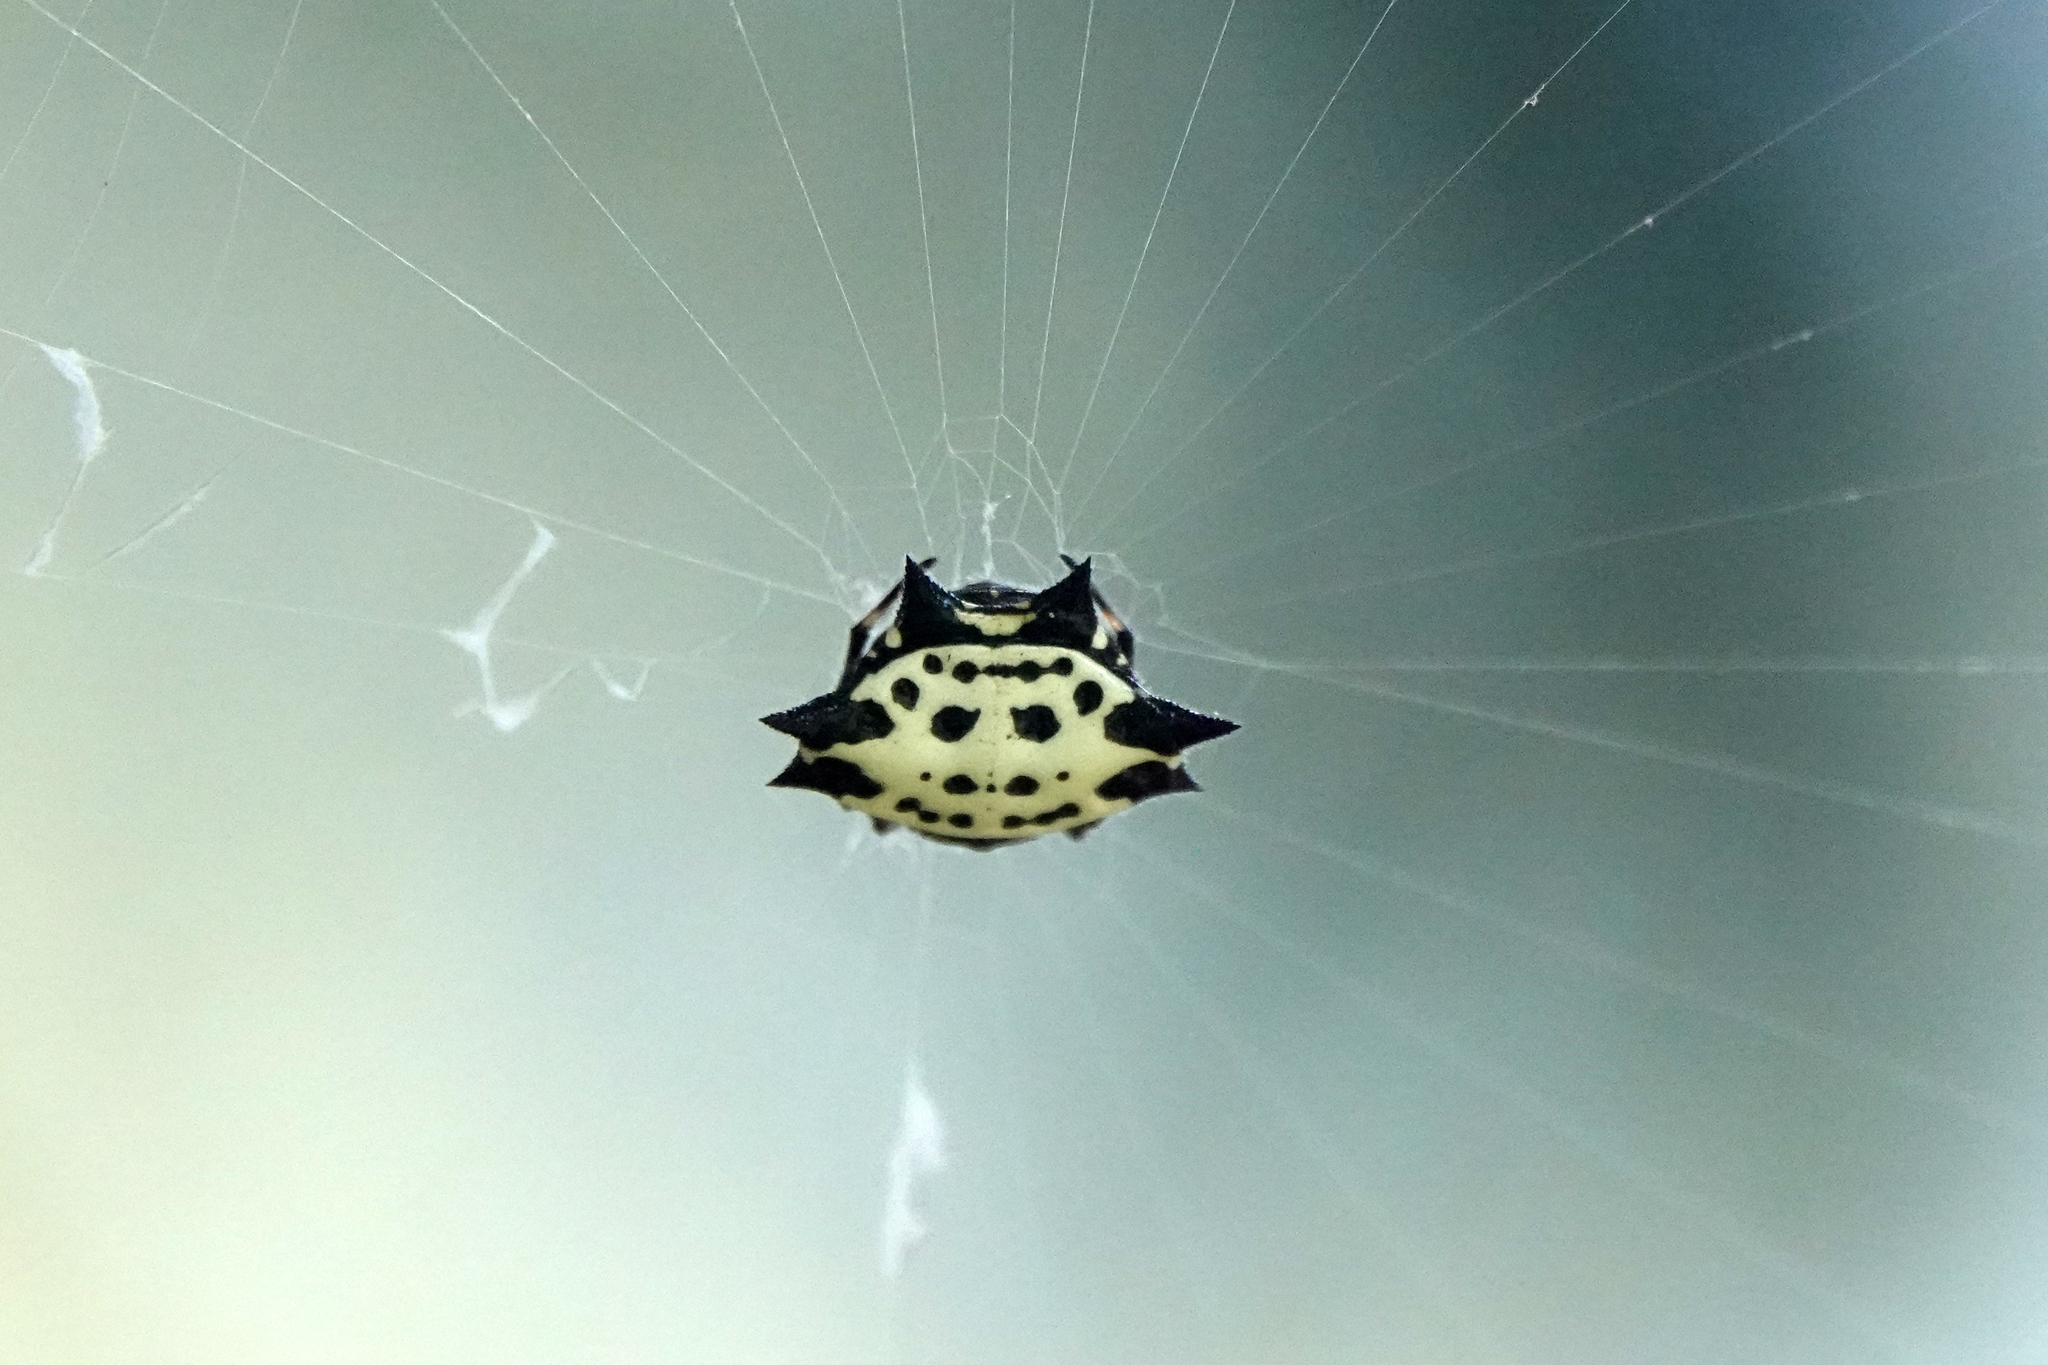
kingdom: Animalia
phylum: Arthropoda
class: Arachnida
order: Araneae
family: Araneidae
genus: Gasteracantha
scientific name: Gasteracantha cancriformis
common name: Orb weavers
